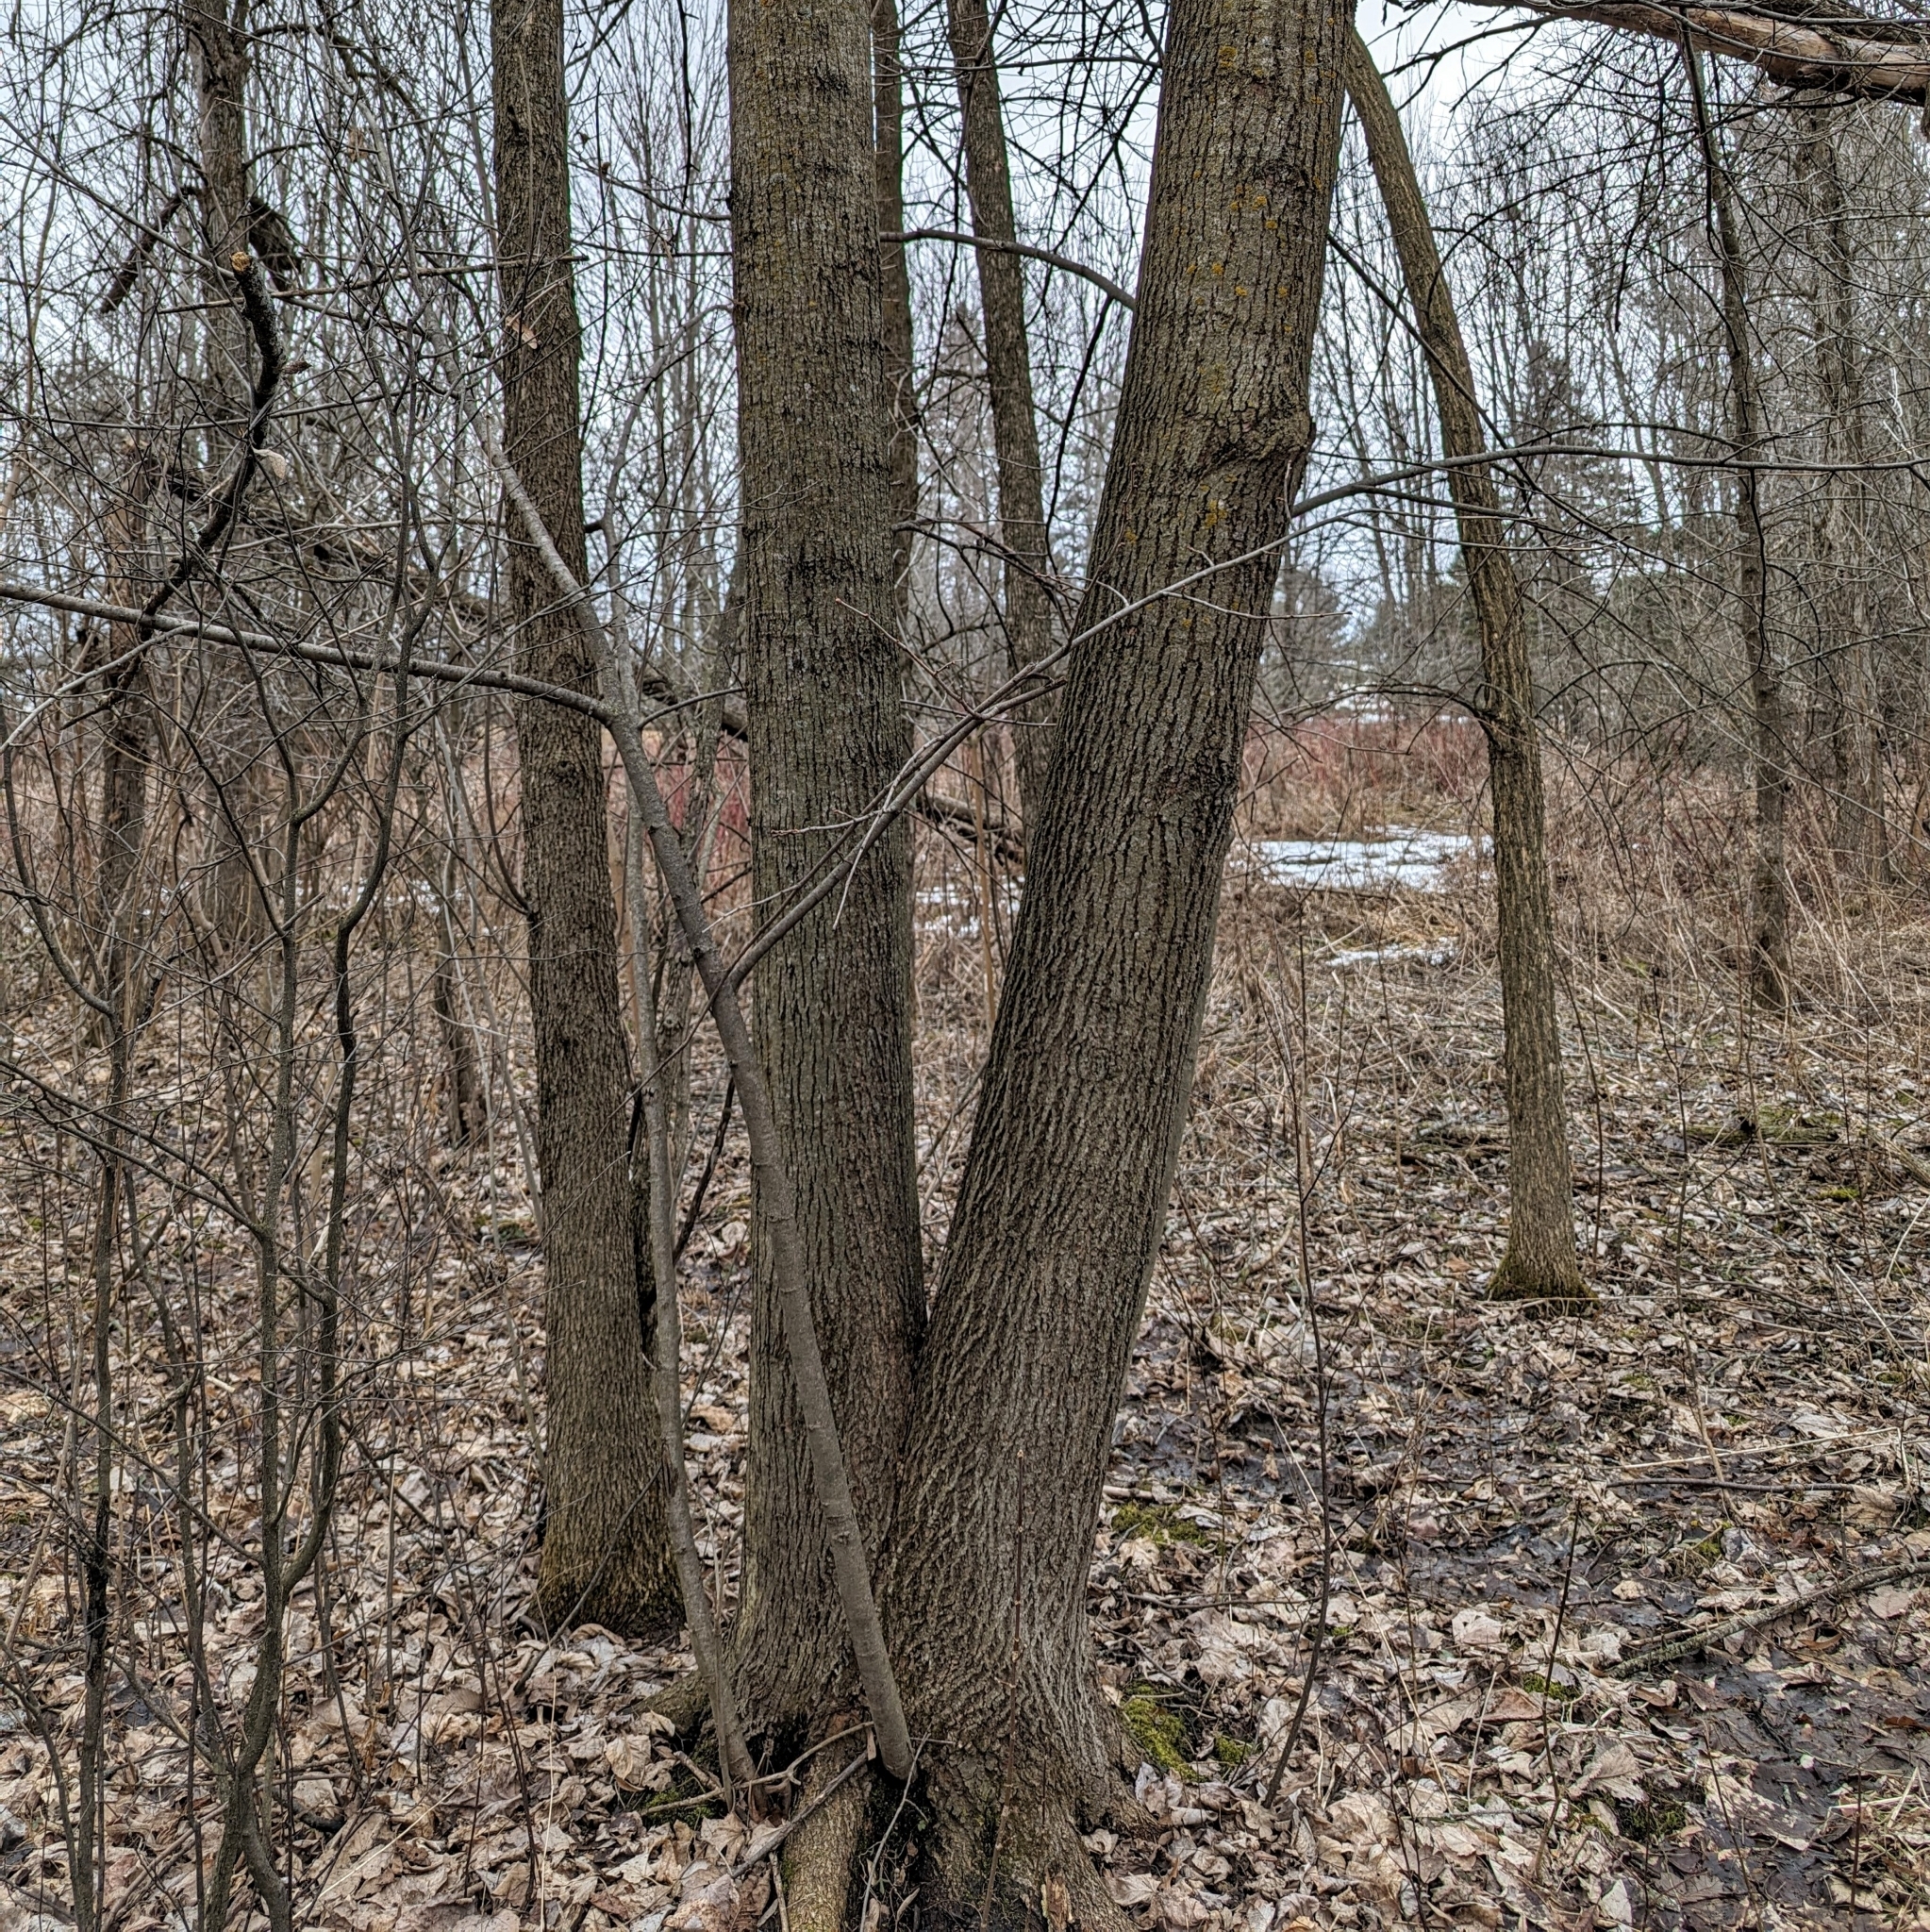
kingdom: Plantae
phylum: Tracheophyta
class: Magnoliopsida
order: Malvales
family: Malvaceae
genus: Tilia
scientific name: Tilia americana
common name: Basswood
